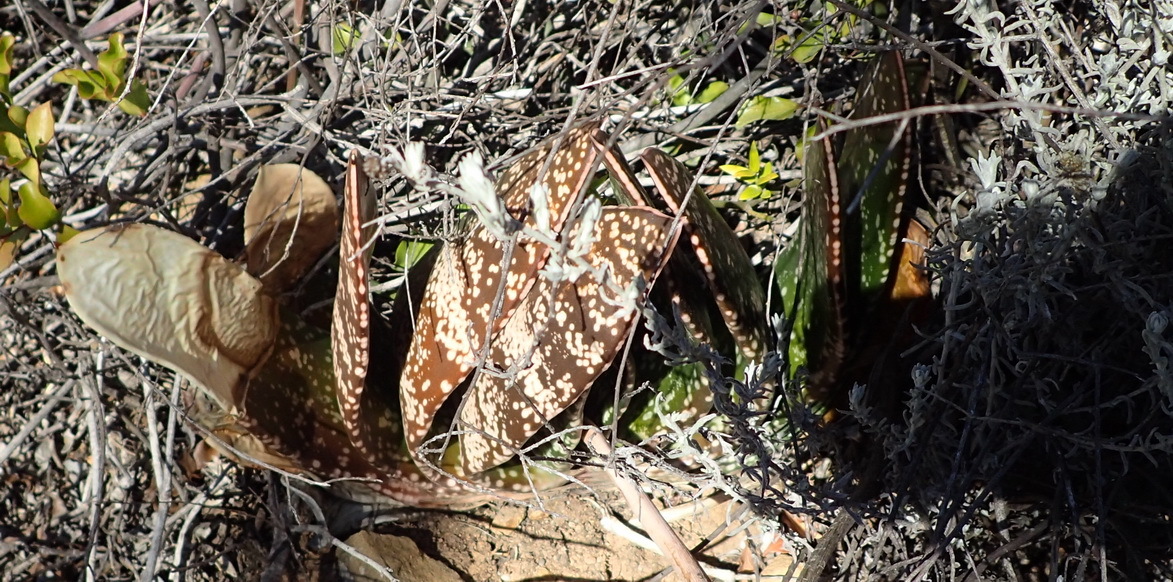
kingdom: Plantae
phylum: Tracheophyta
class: Liliopsida
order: Asparagales
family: Asphodelaceae
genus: Gasteria
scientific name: Gasteria brachyphylla
